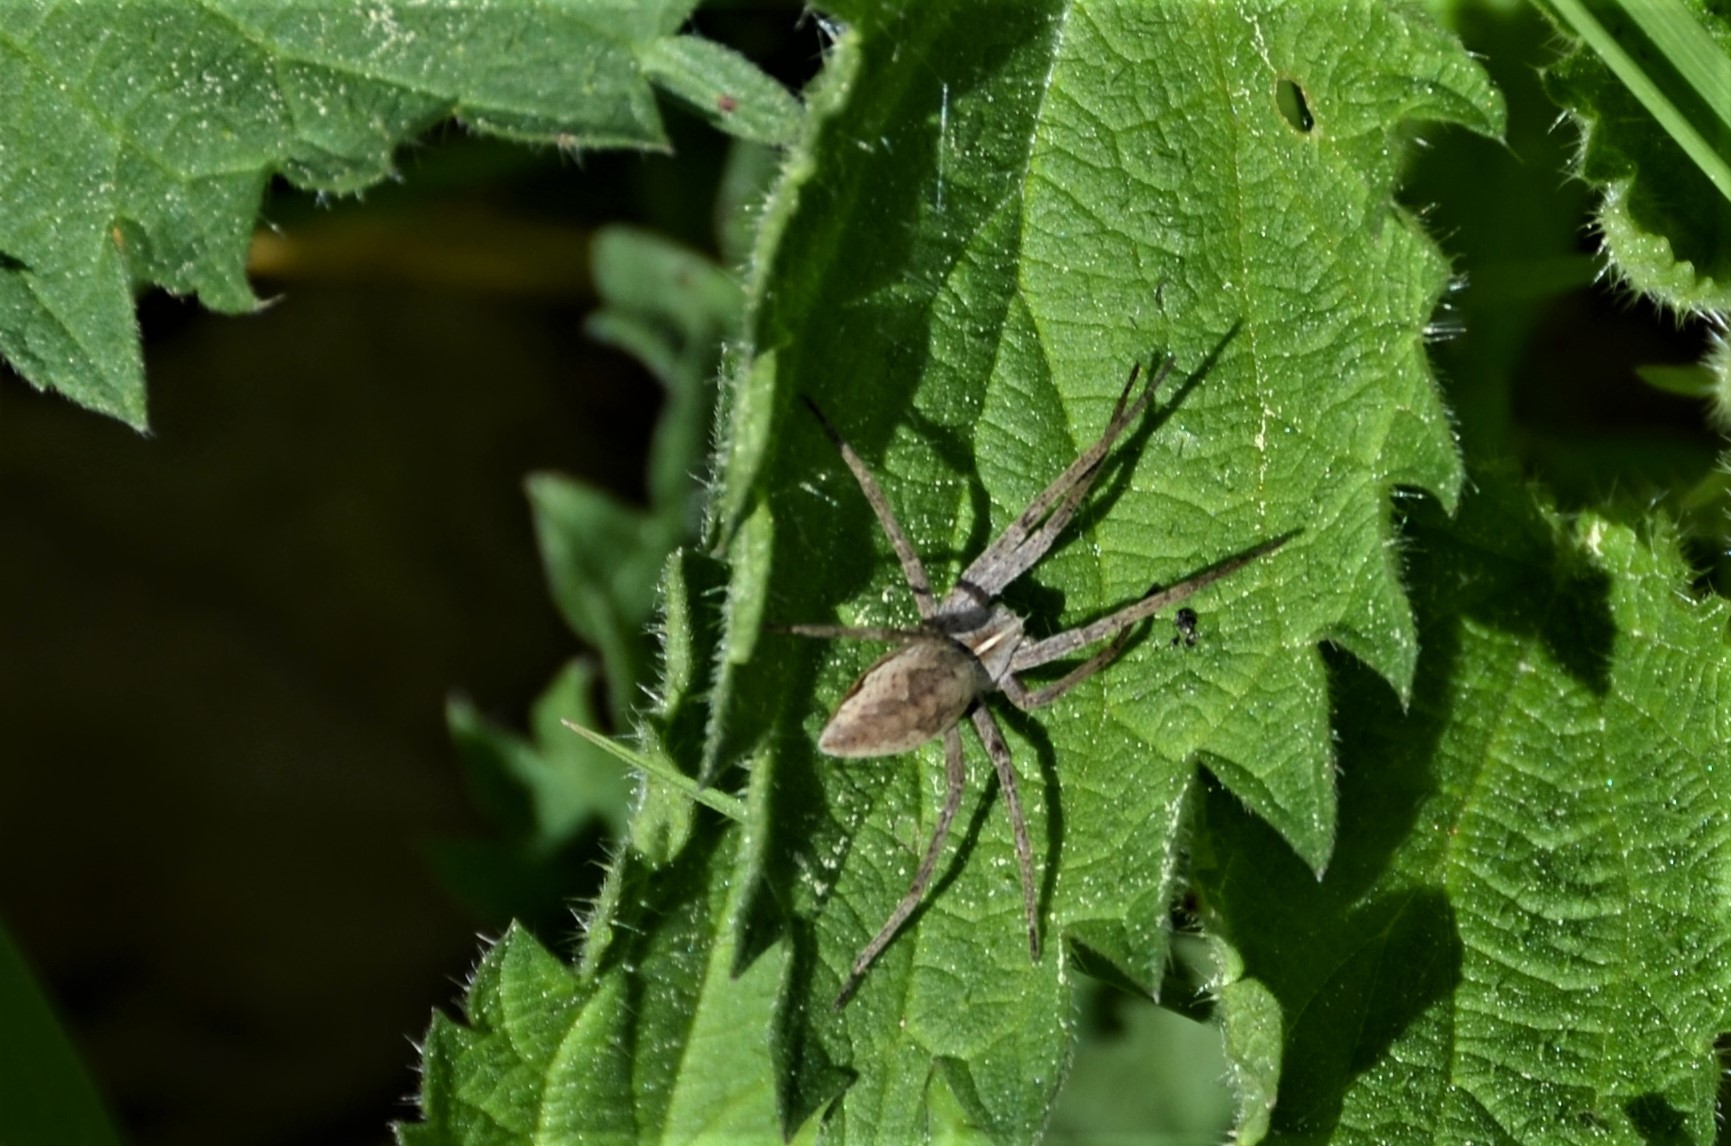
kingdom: Animalia
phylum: Arthropoda
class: Arachnida
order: Araneae
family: Pisauridae
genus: Pisaura
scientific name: Pisaura mirabilis
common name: Tent spider
